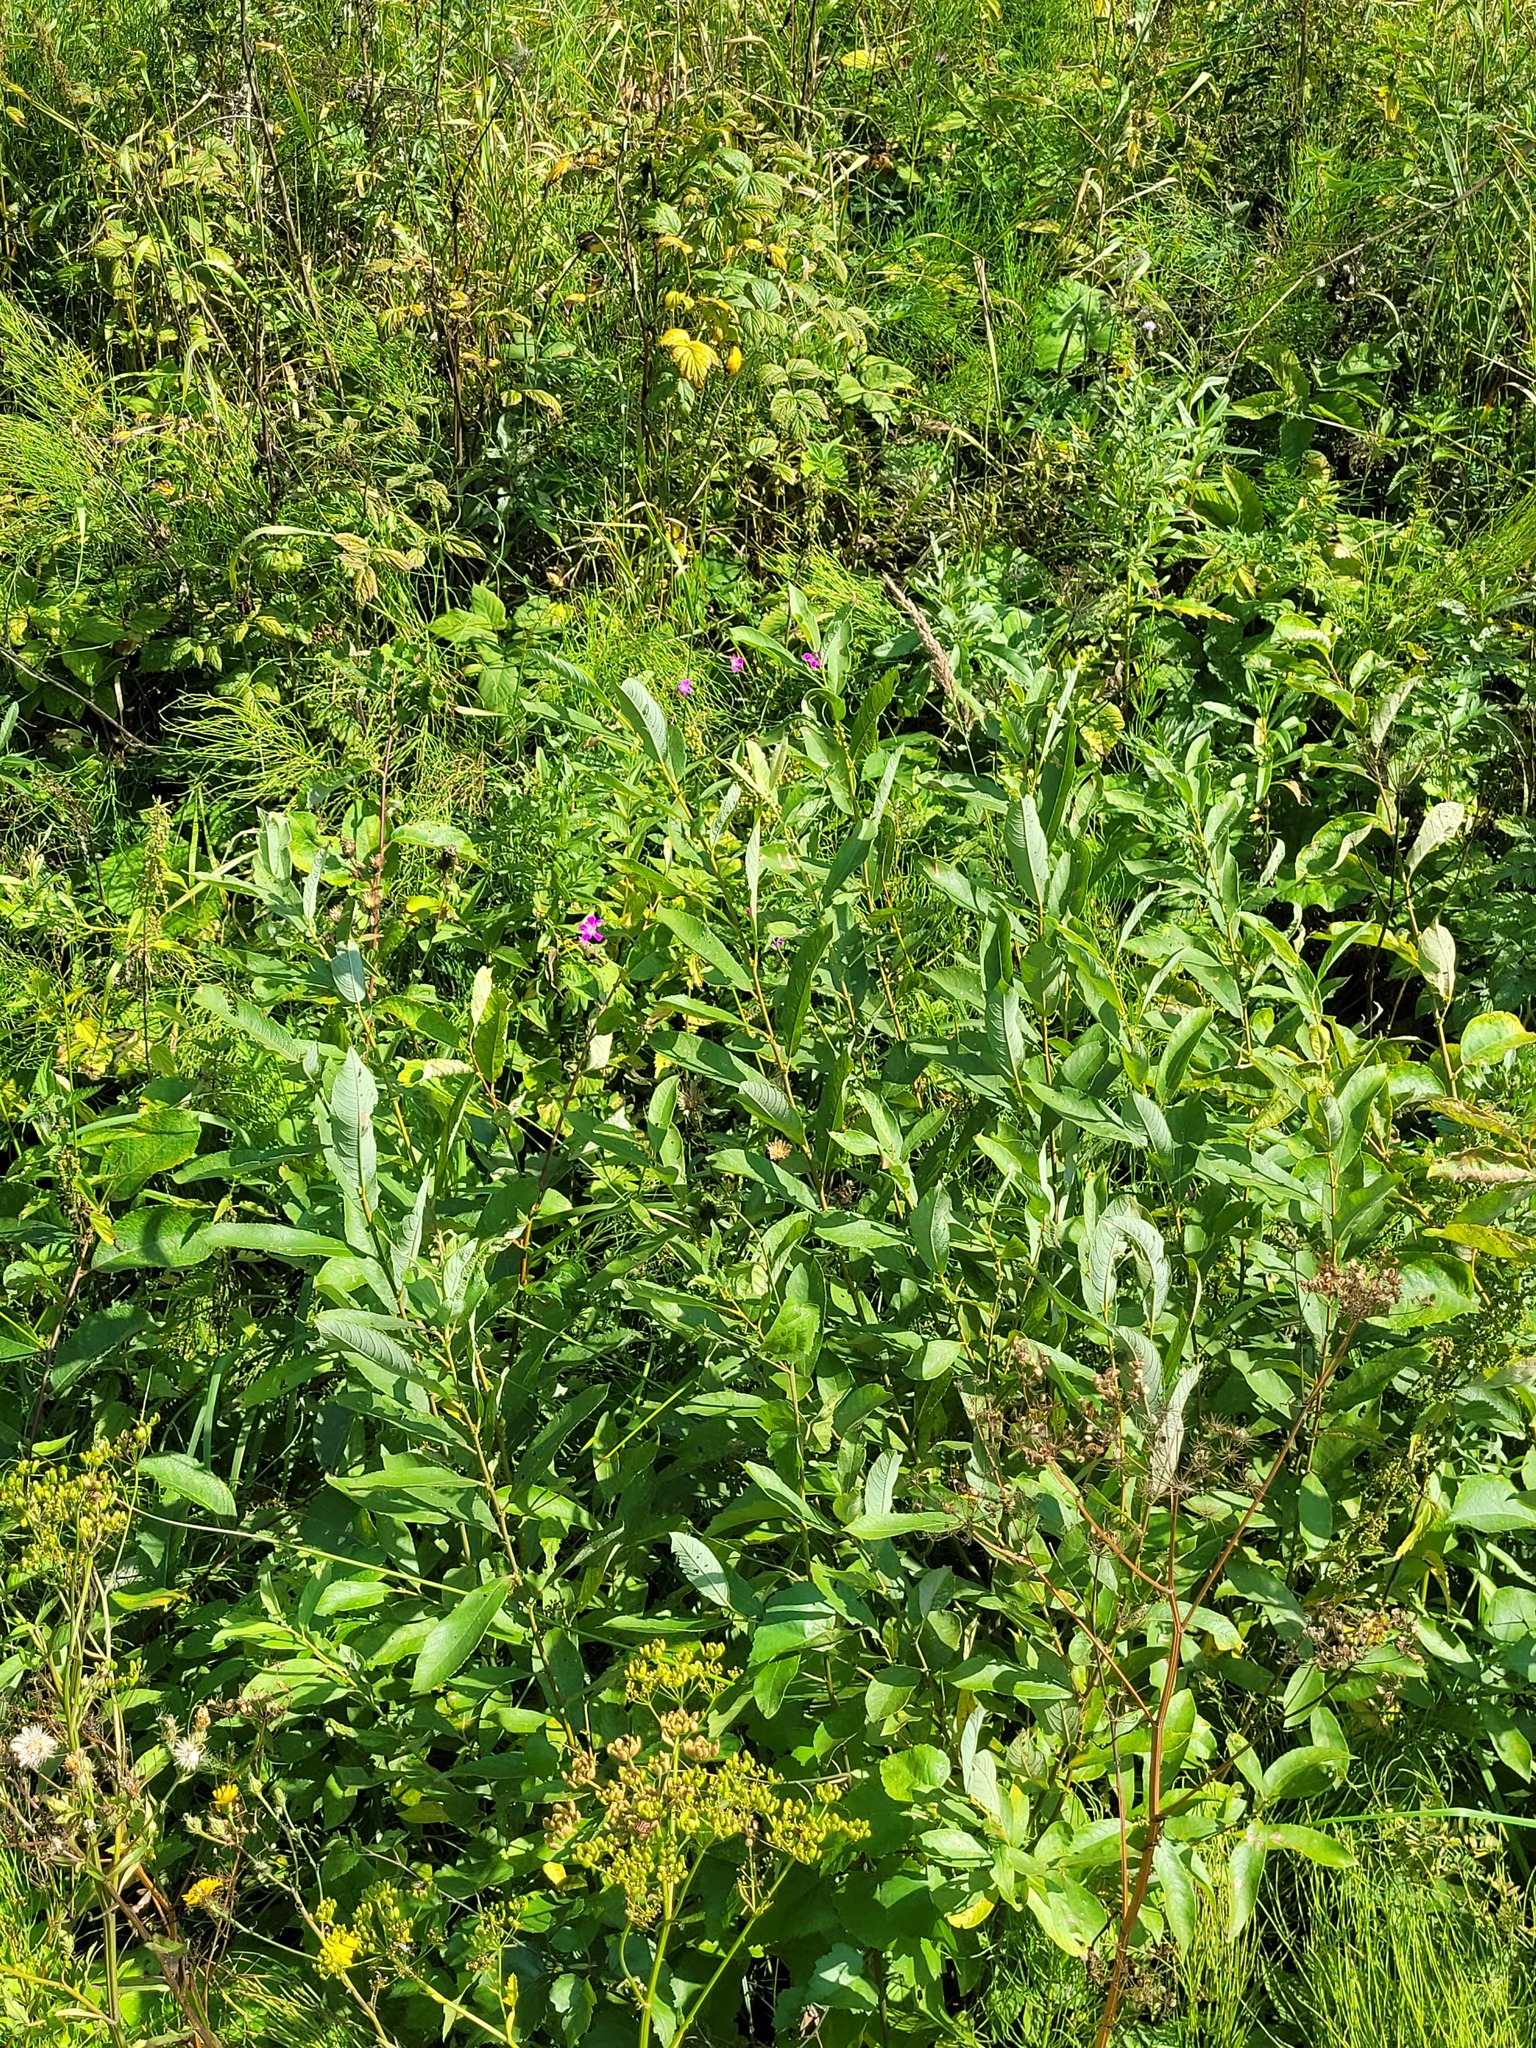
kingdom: Plantae
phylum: Tracheophyta
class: Magnoliopsida
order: Malpighiales
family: Salicaceae
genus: Salix
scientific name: Salix cinerea
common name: Common sallow
